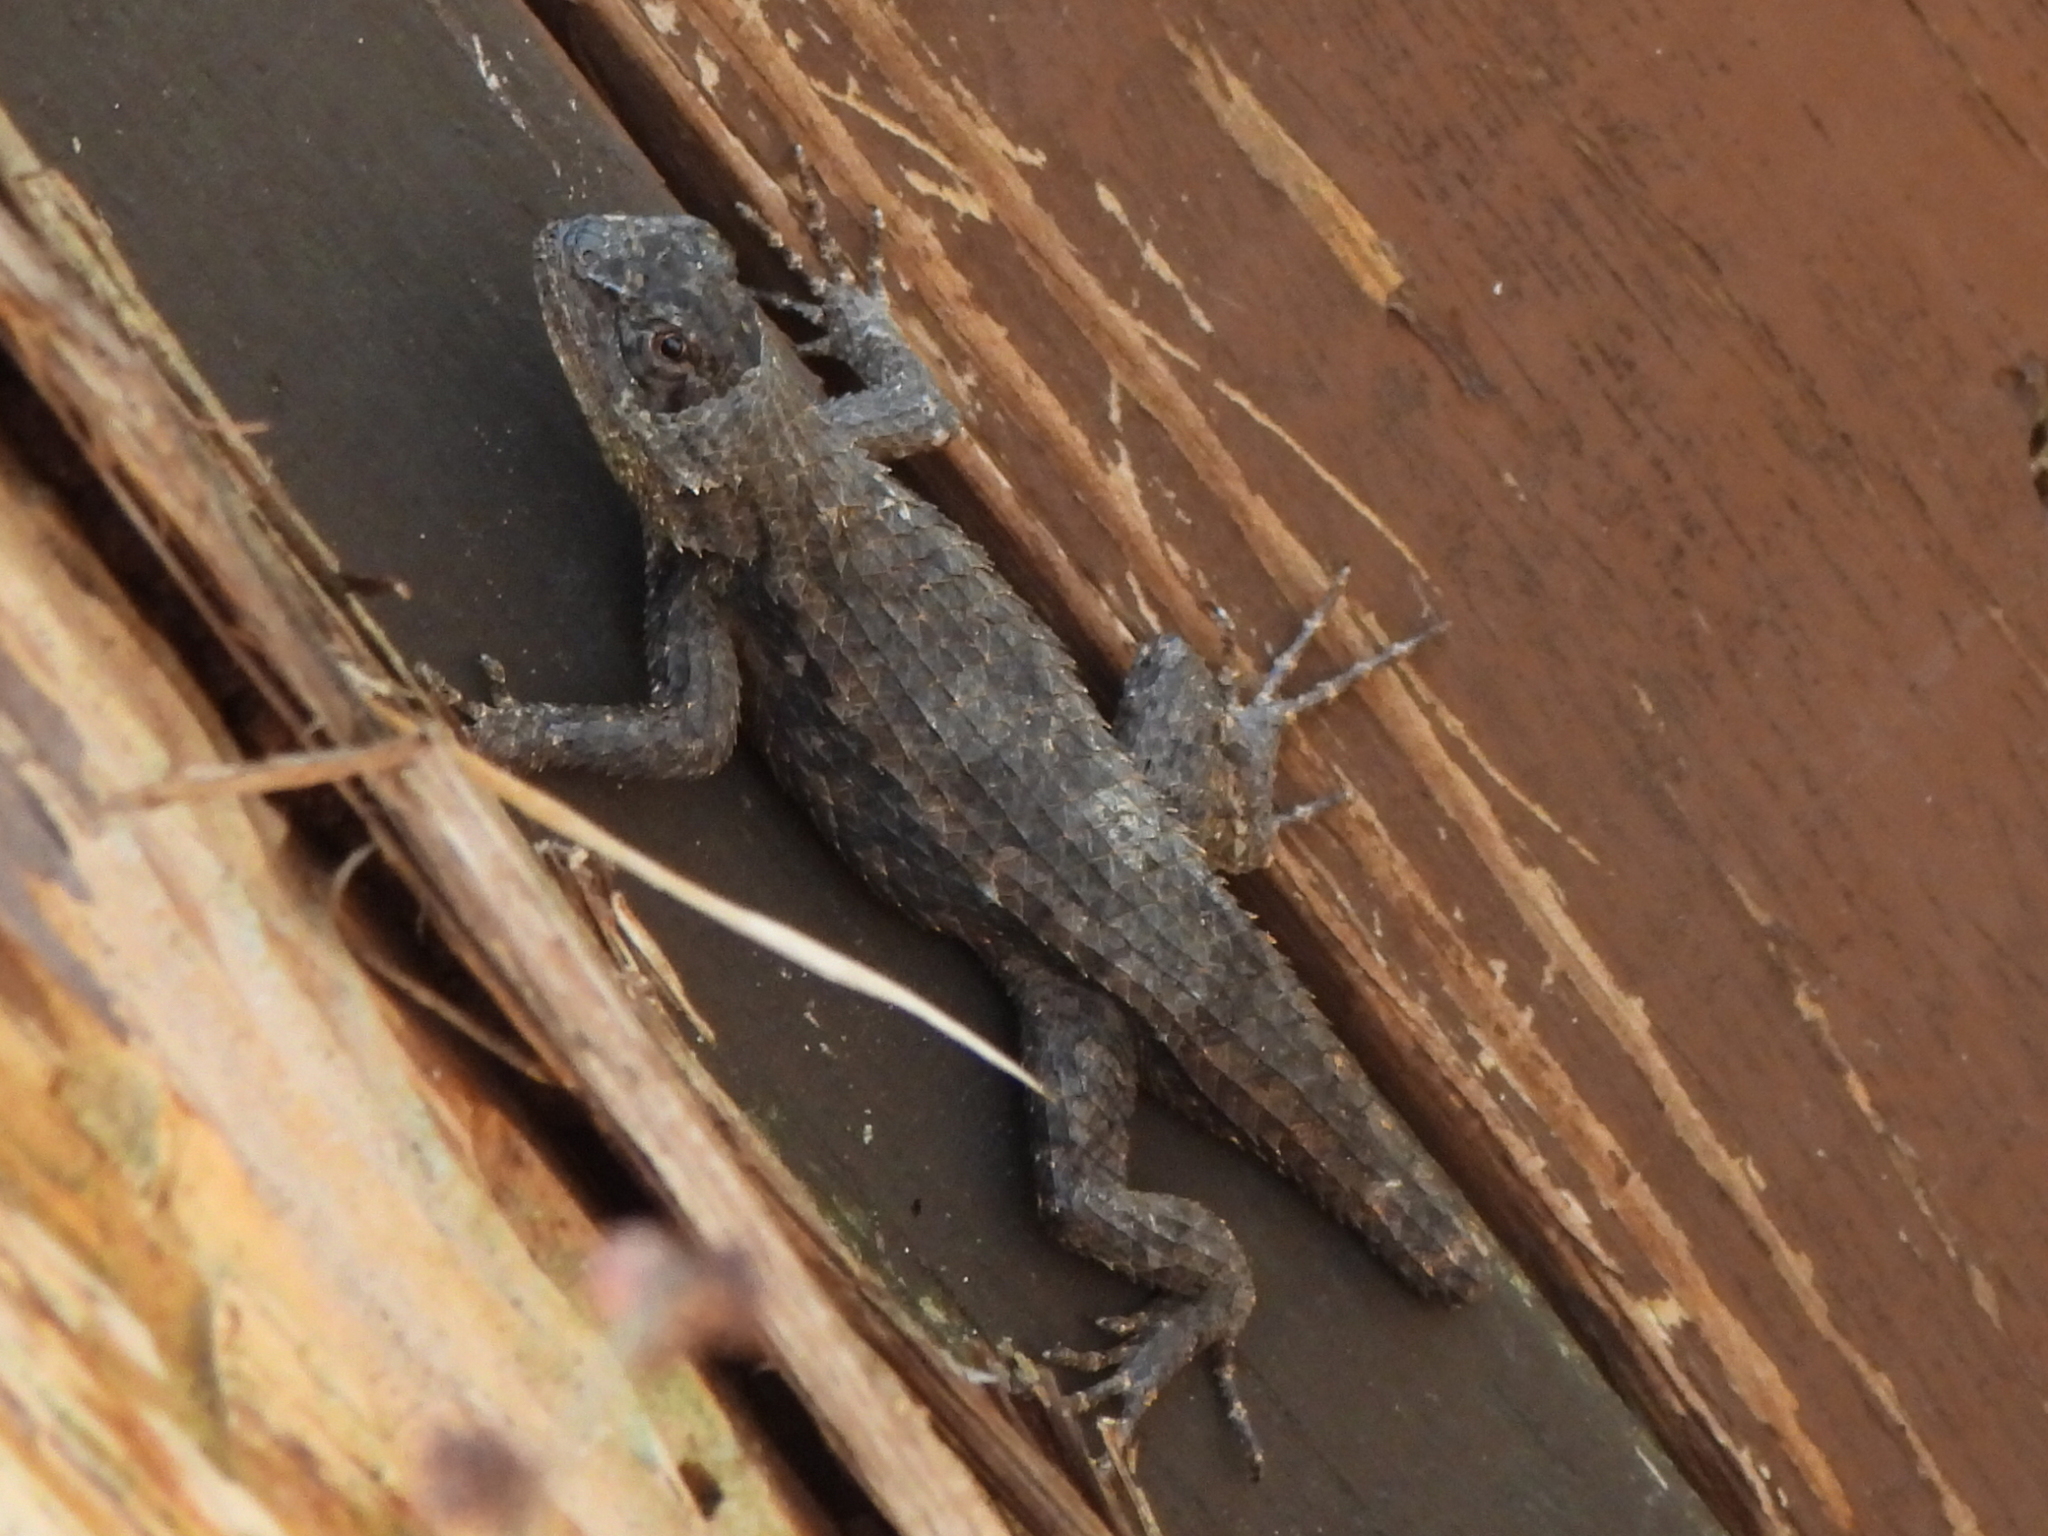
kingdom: Animalia
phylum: Chordata
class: Squamata
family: Phrynosomatidae
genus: Sceloporus
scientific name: Sceloporus olivaceus
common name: Texas spiny lizard
